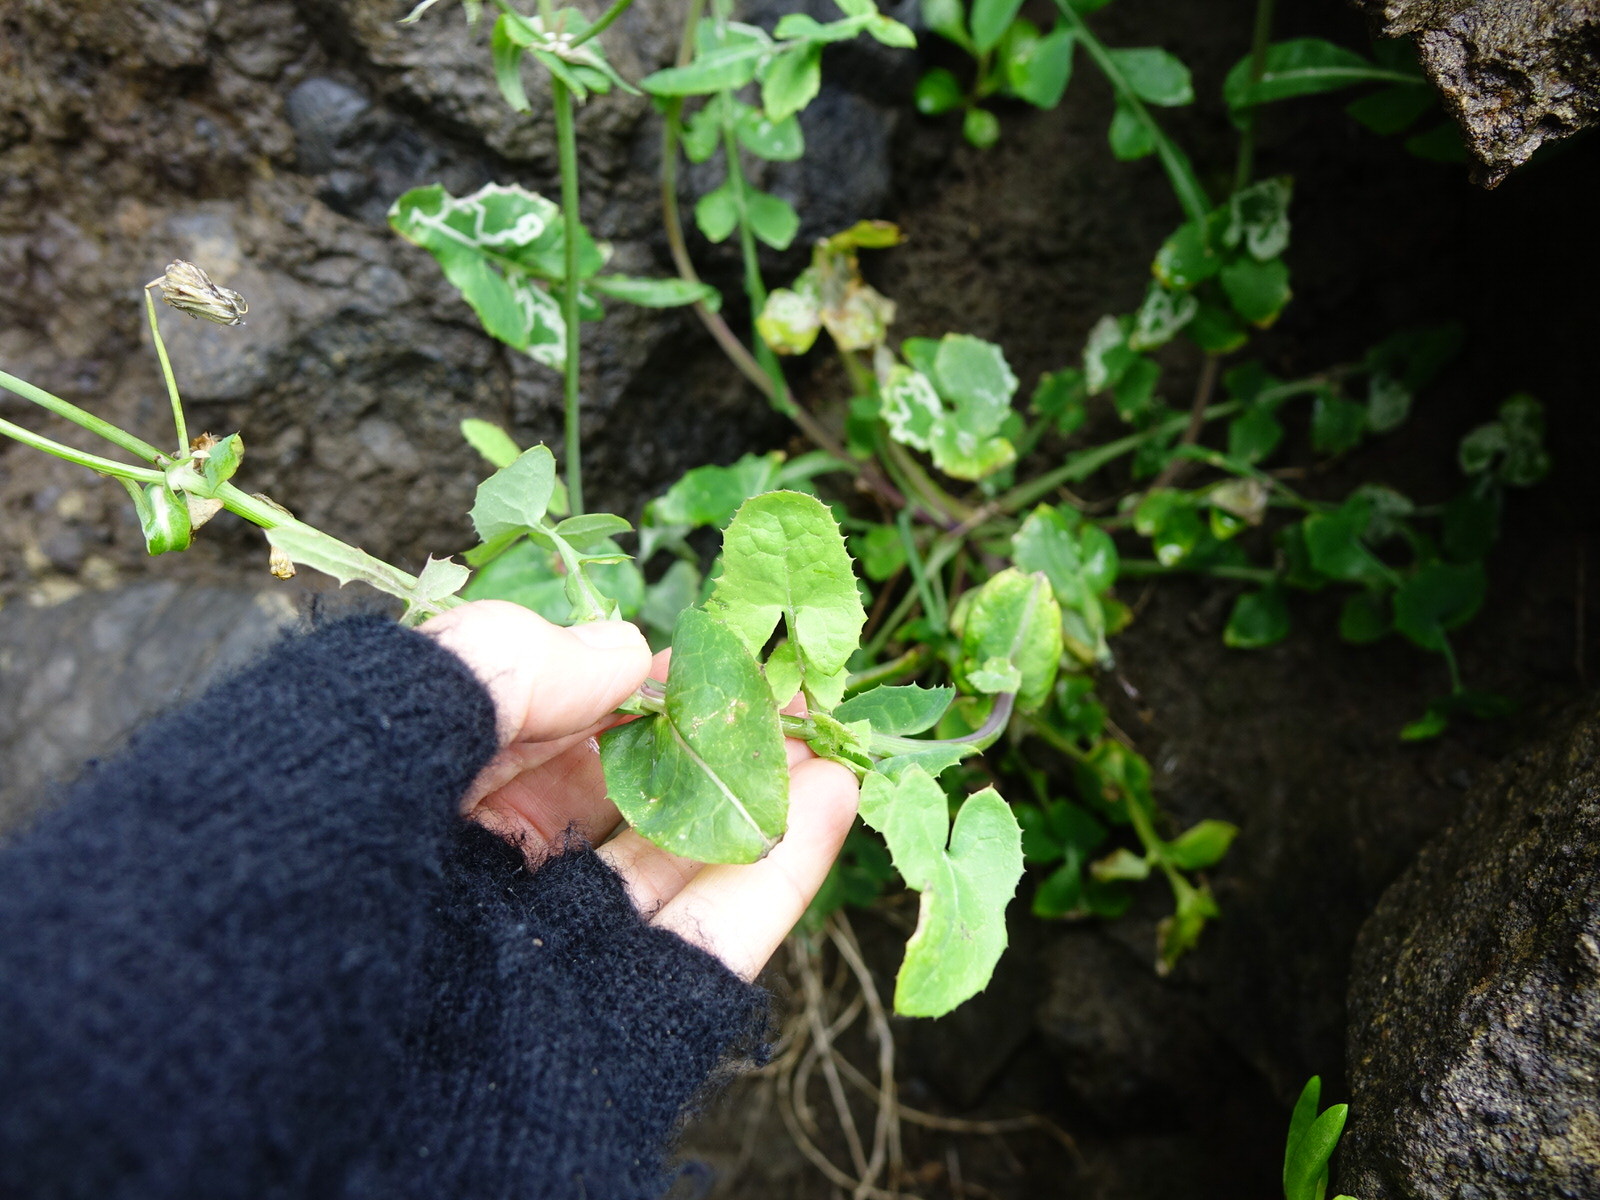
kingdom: Plantae
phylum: Tracheophyta
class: Magnoliopsida
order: Asterales
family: Asteraceae
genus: Sonchus
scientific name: Sonchus oleraceus
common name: Common sowthistle
